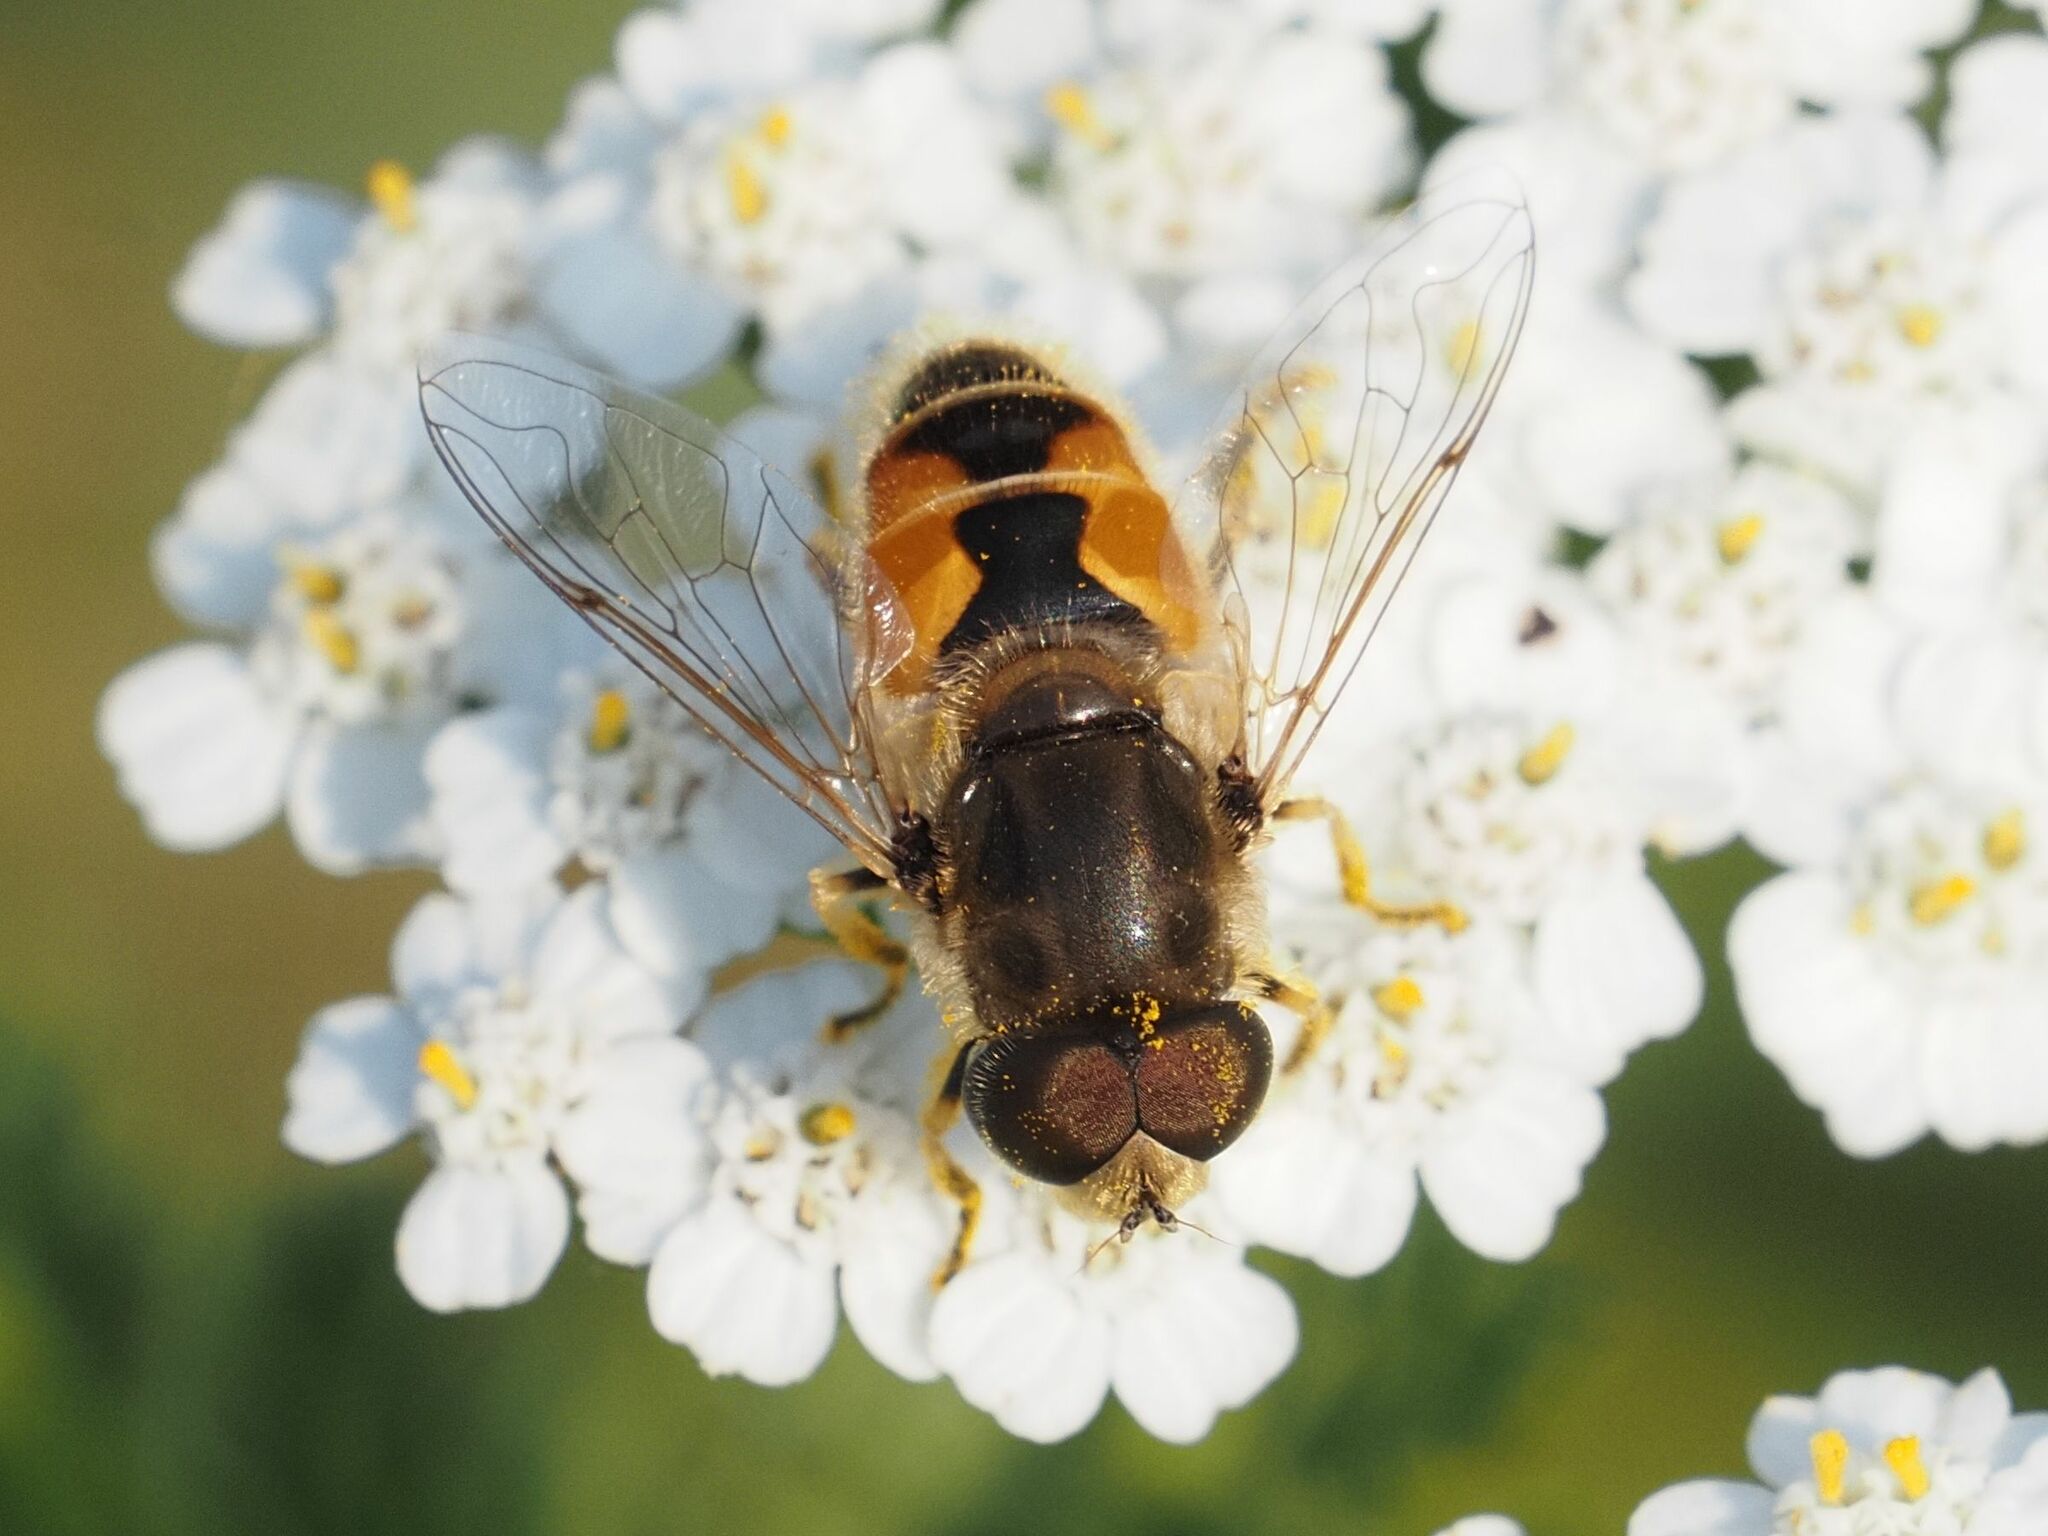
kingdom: Animalia
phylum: Arthropoda
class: Insecta
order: Diptera
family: Syrphidae
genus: Eristalis
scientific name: Eristalis arbustorum
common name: Hover fly
